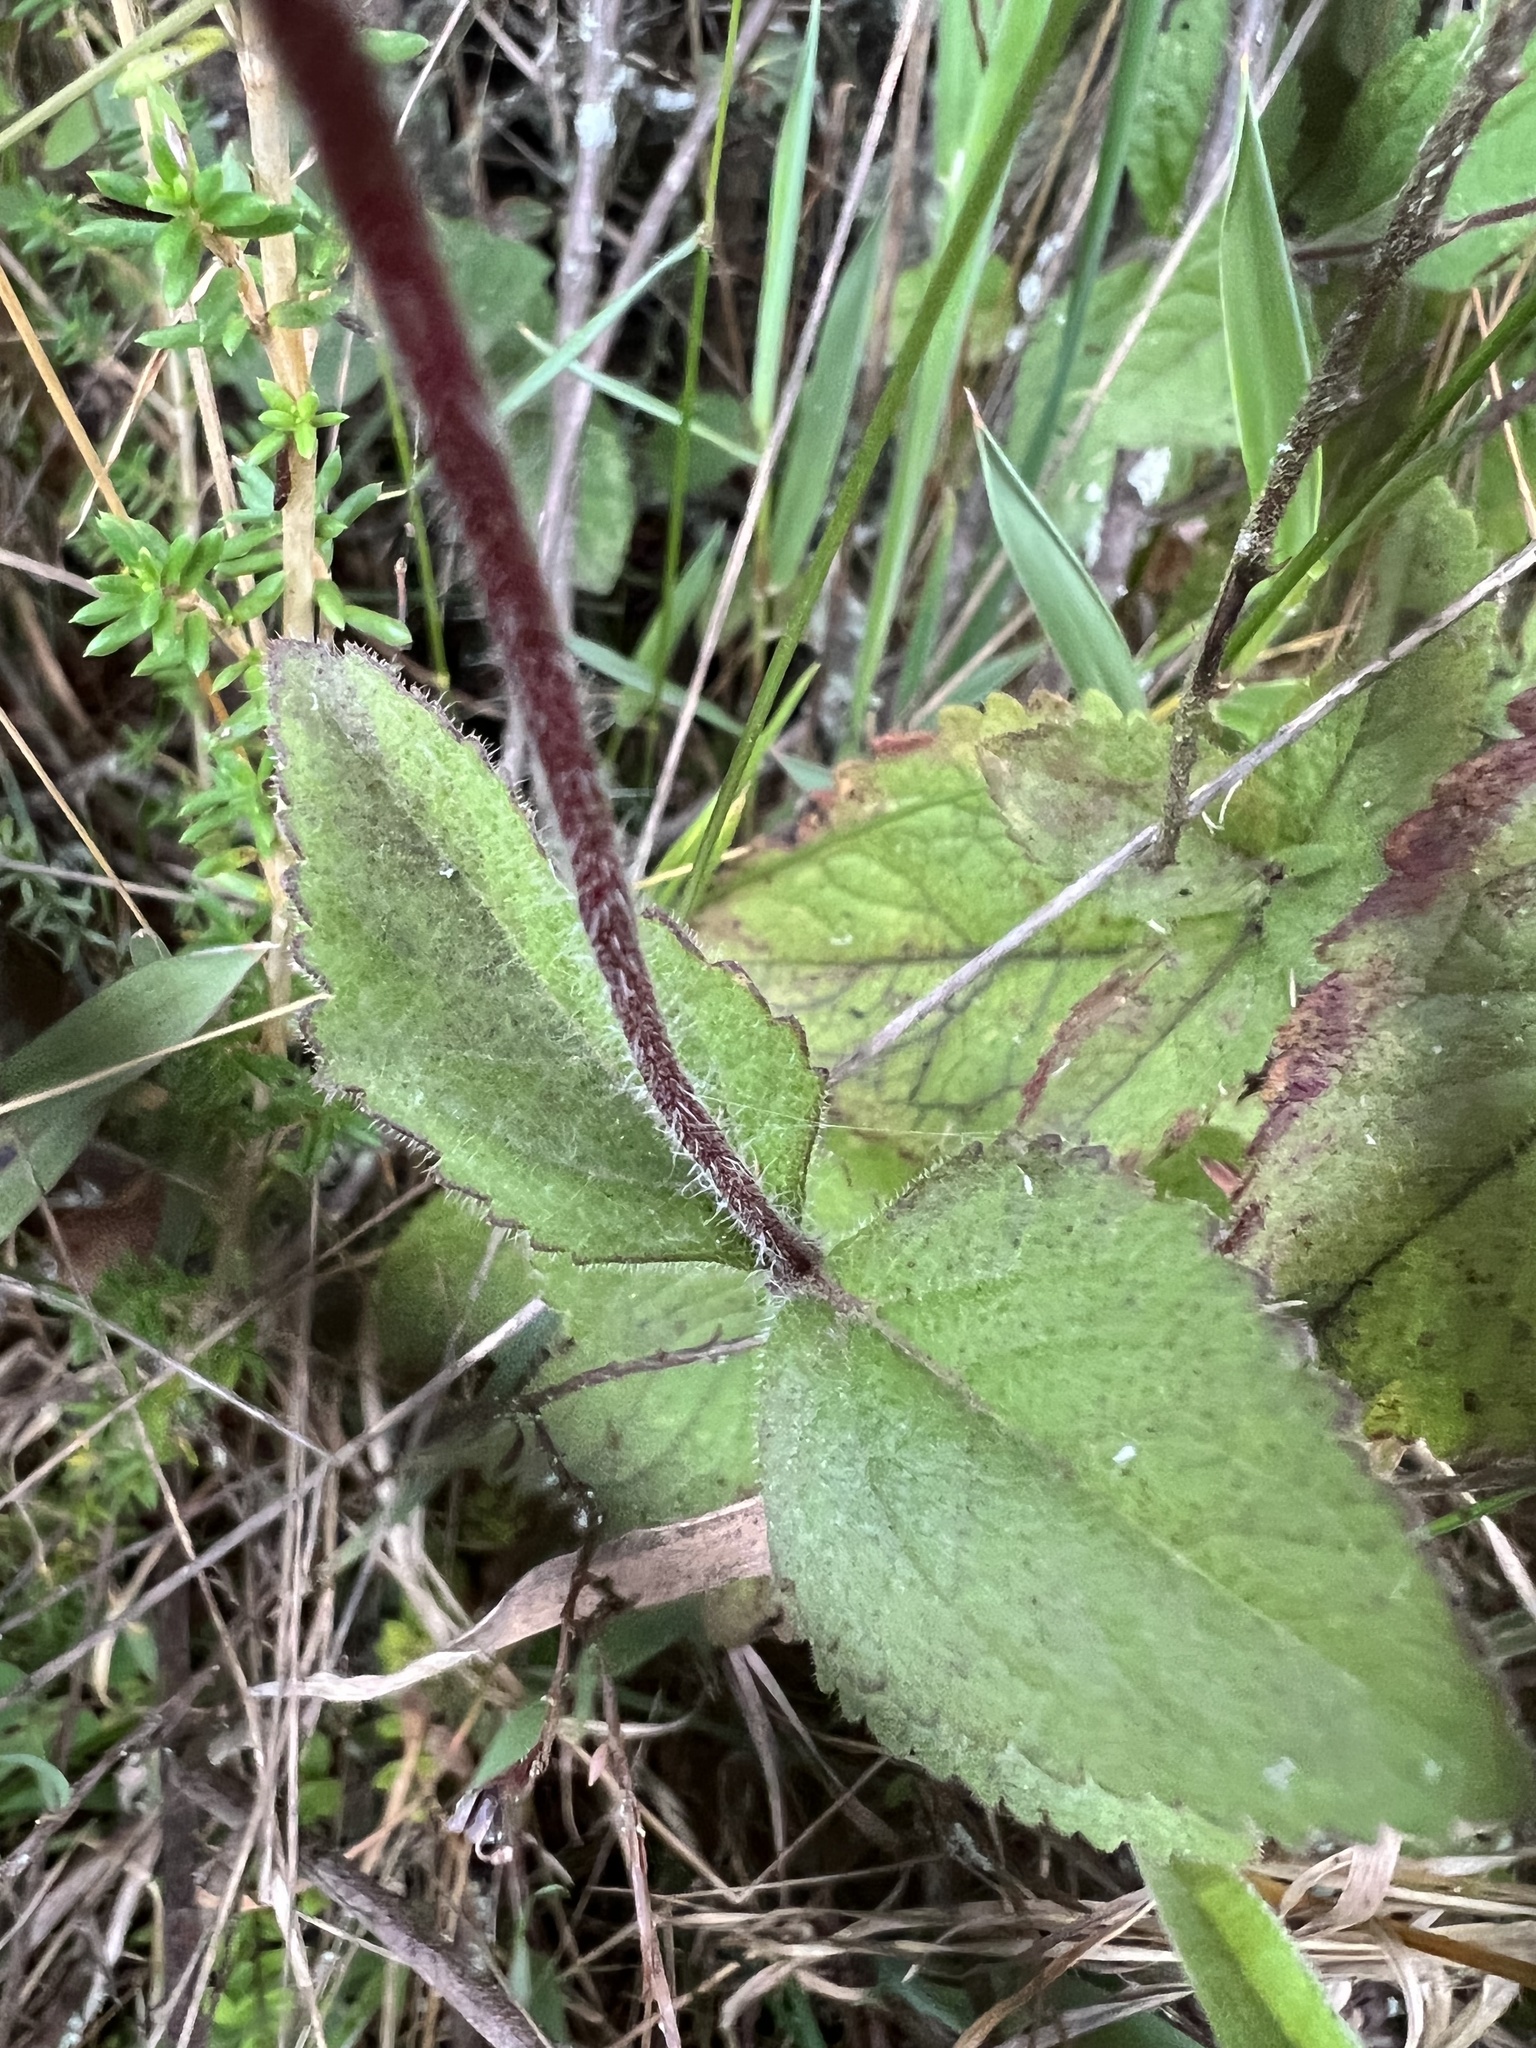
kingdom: Plantae
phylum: Tracheophyta
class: Magnoliopsida
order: Asterales
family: Asteraceae
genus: Stevia
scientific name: Stevia elatior
